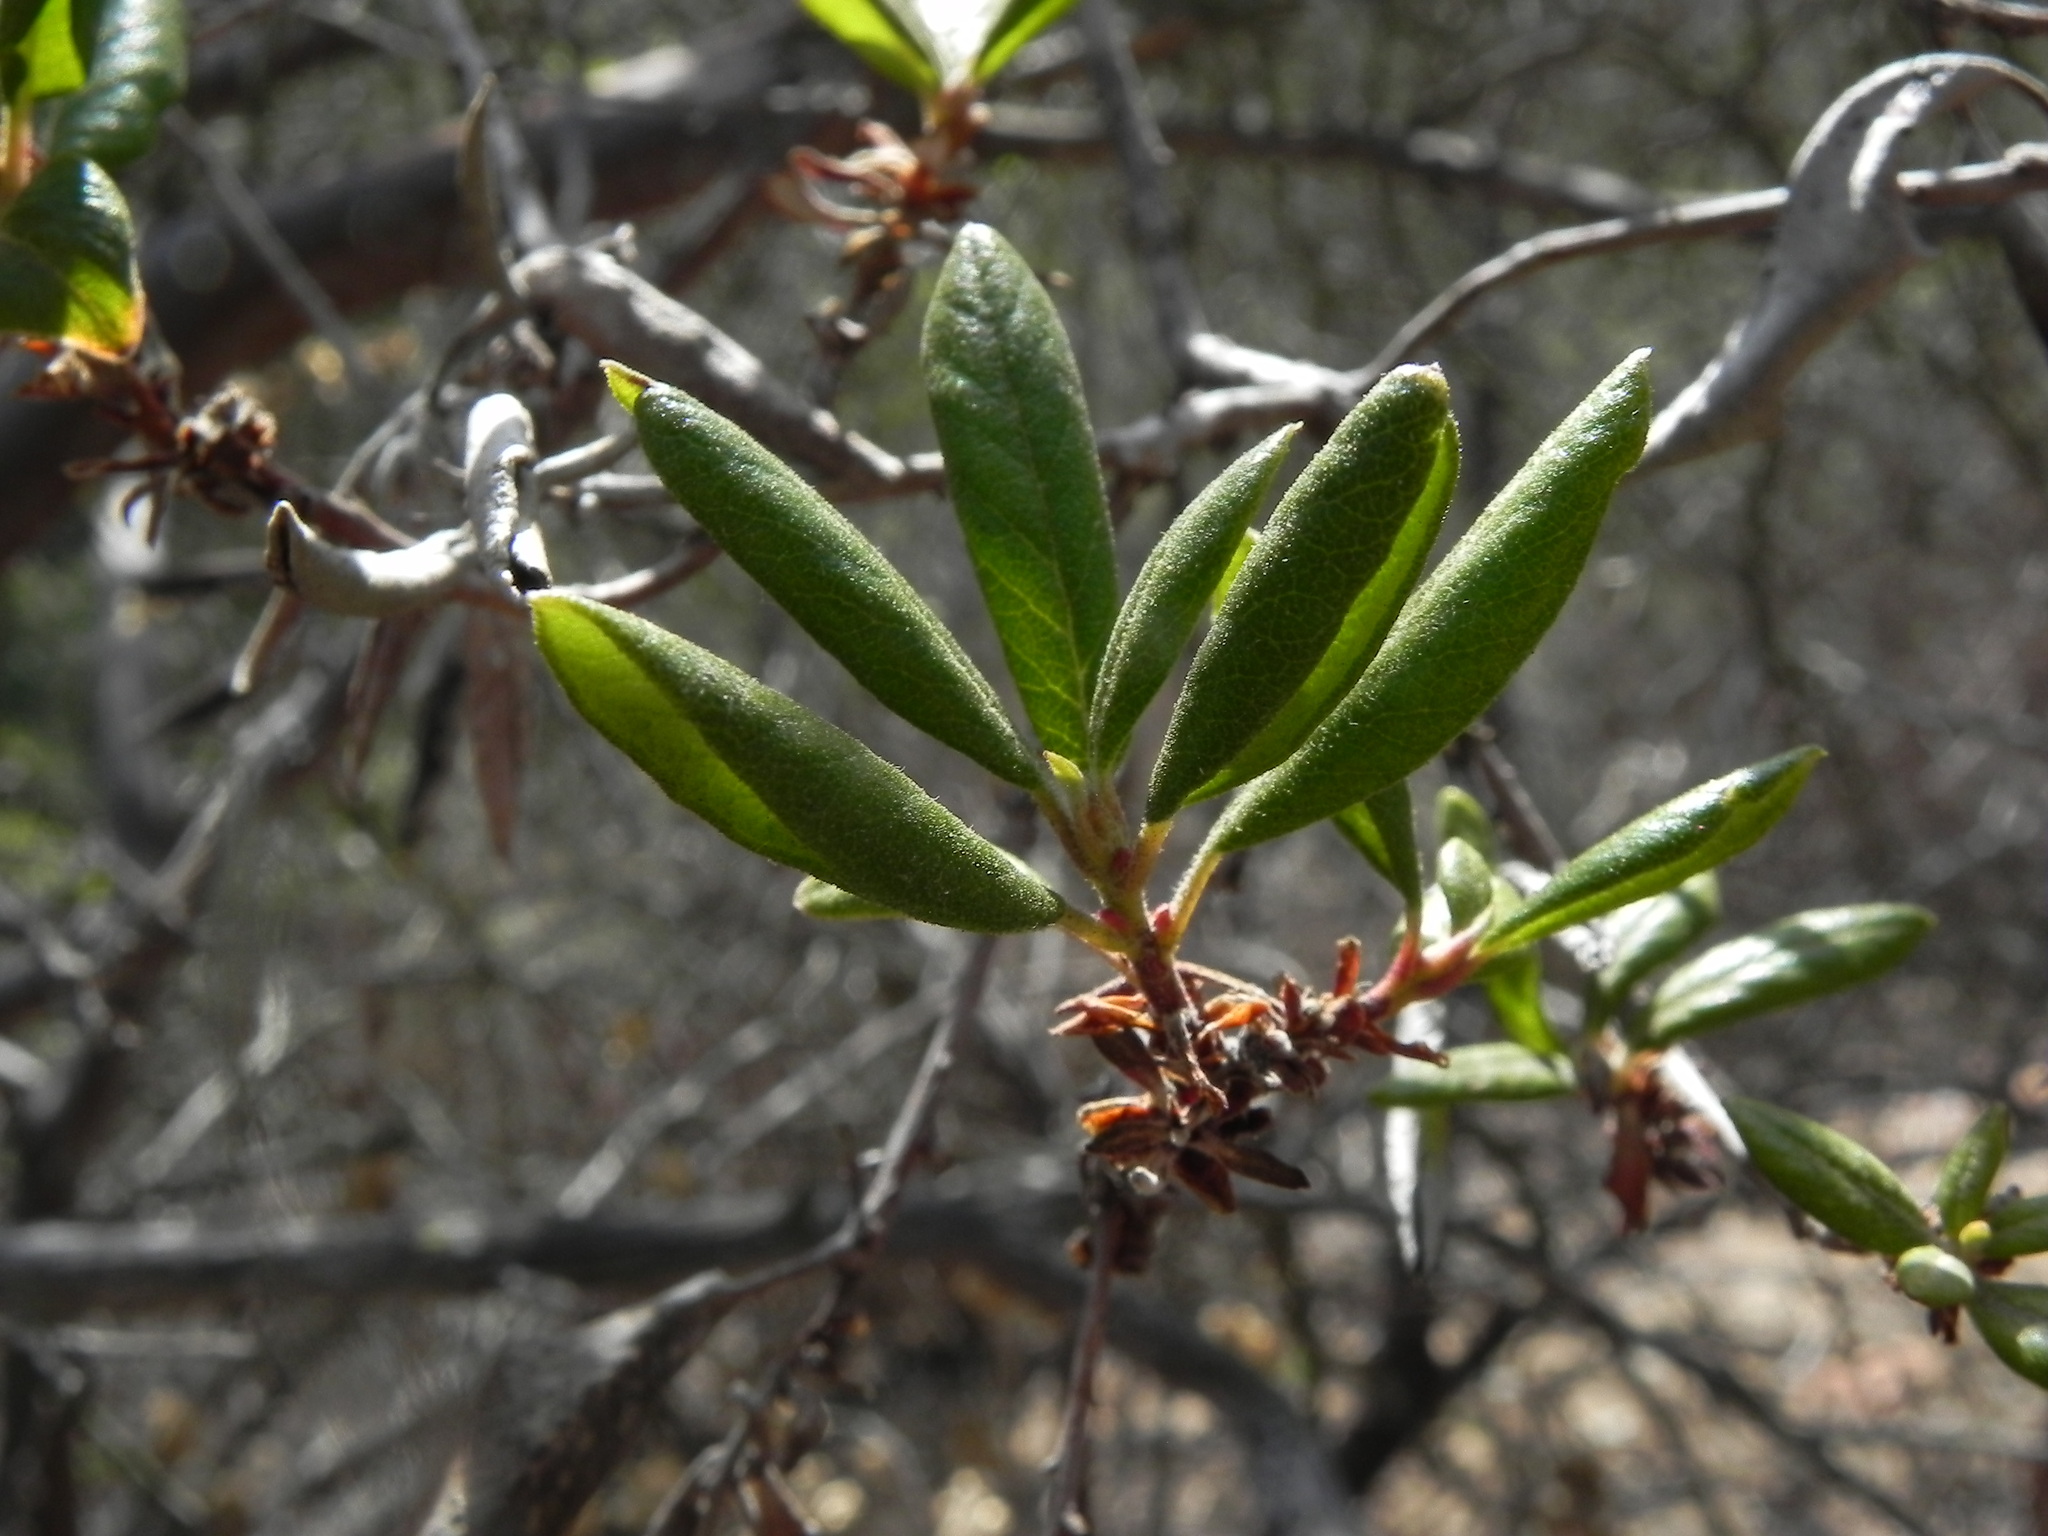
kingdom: Plantae
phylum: Tracheophyta
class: Magnoliopsida
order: Ericales
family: Ericaceae
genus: Arctostaphylos
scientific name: Arctostaphylos bicolor
